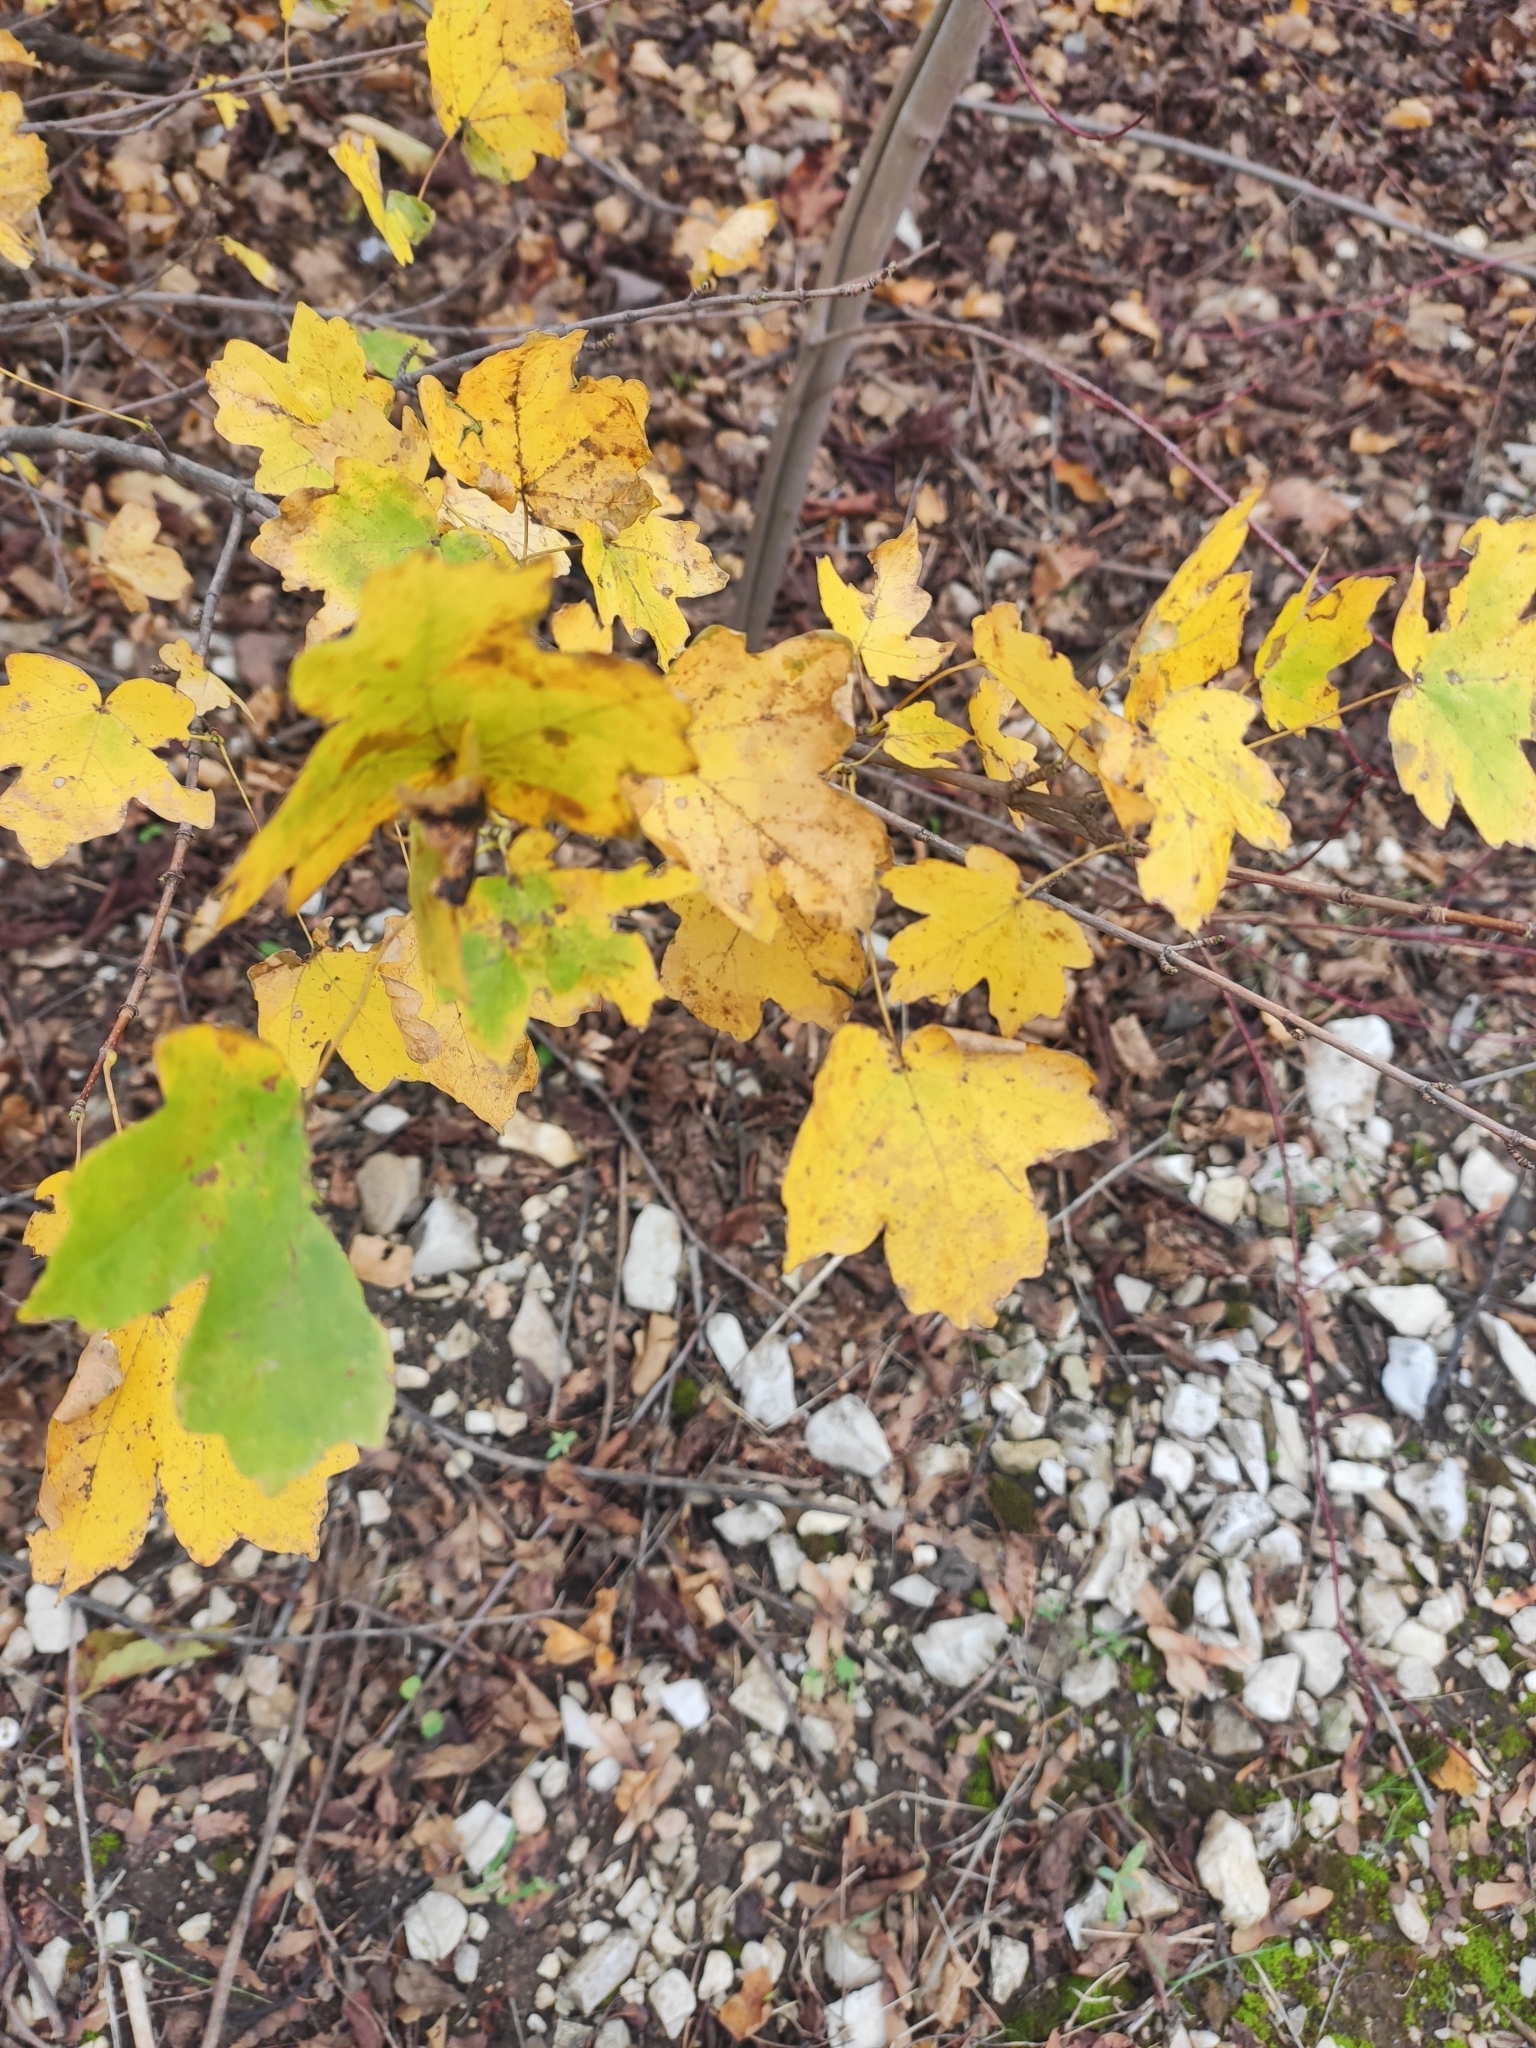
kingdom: Plantae
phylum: Tracheophyta
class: Magnoliopsida
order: Sapindales
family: Sapindaceae
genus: Acer
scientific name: Acer campestre
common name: Field maple
